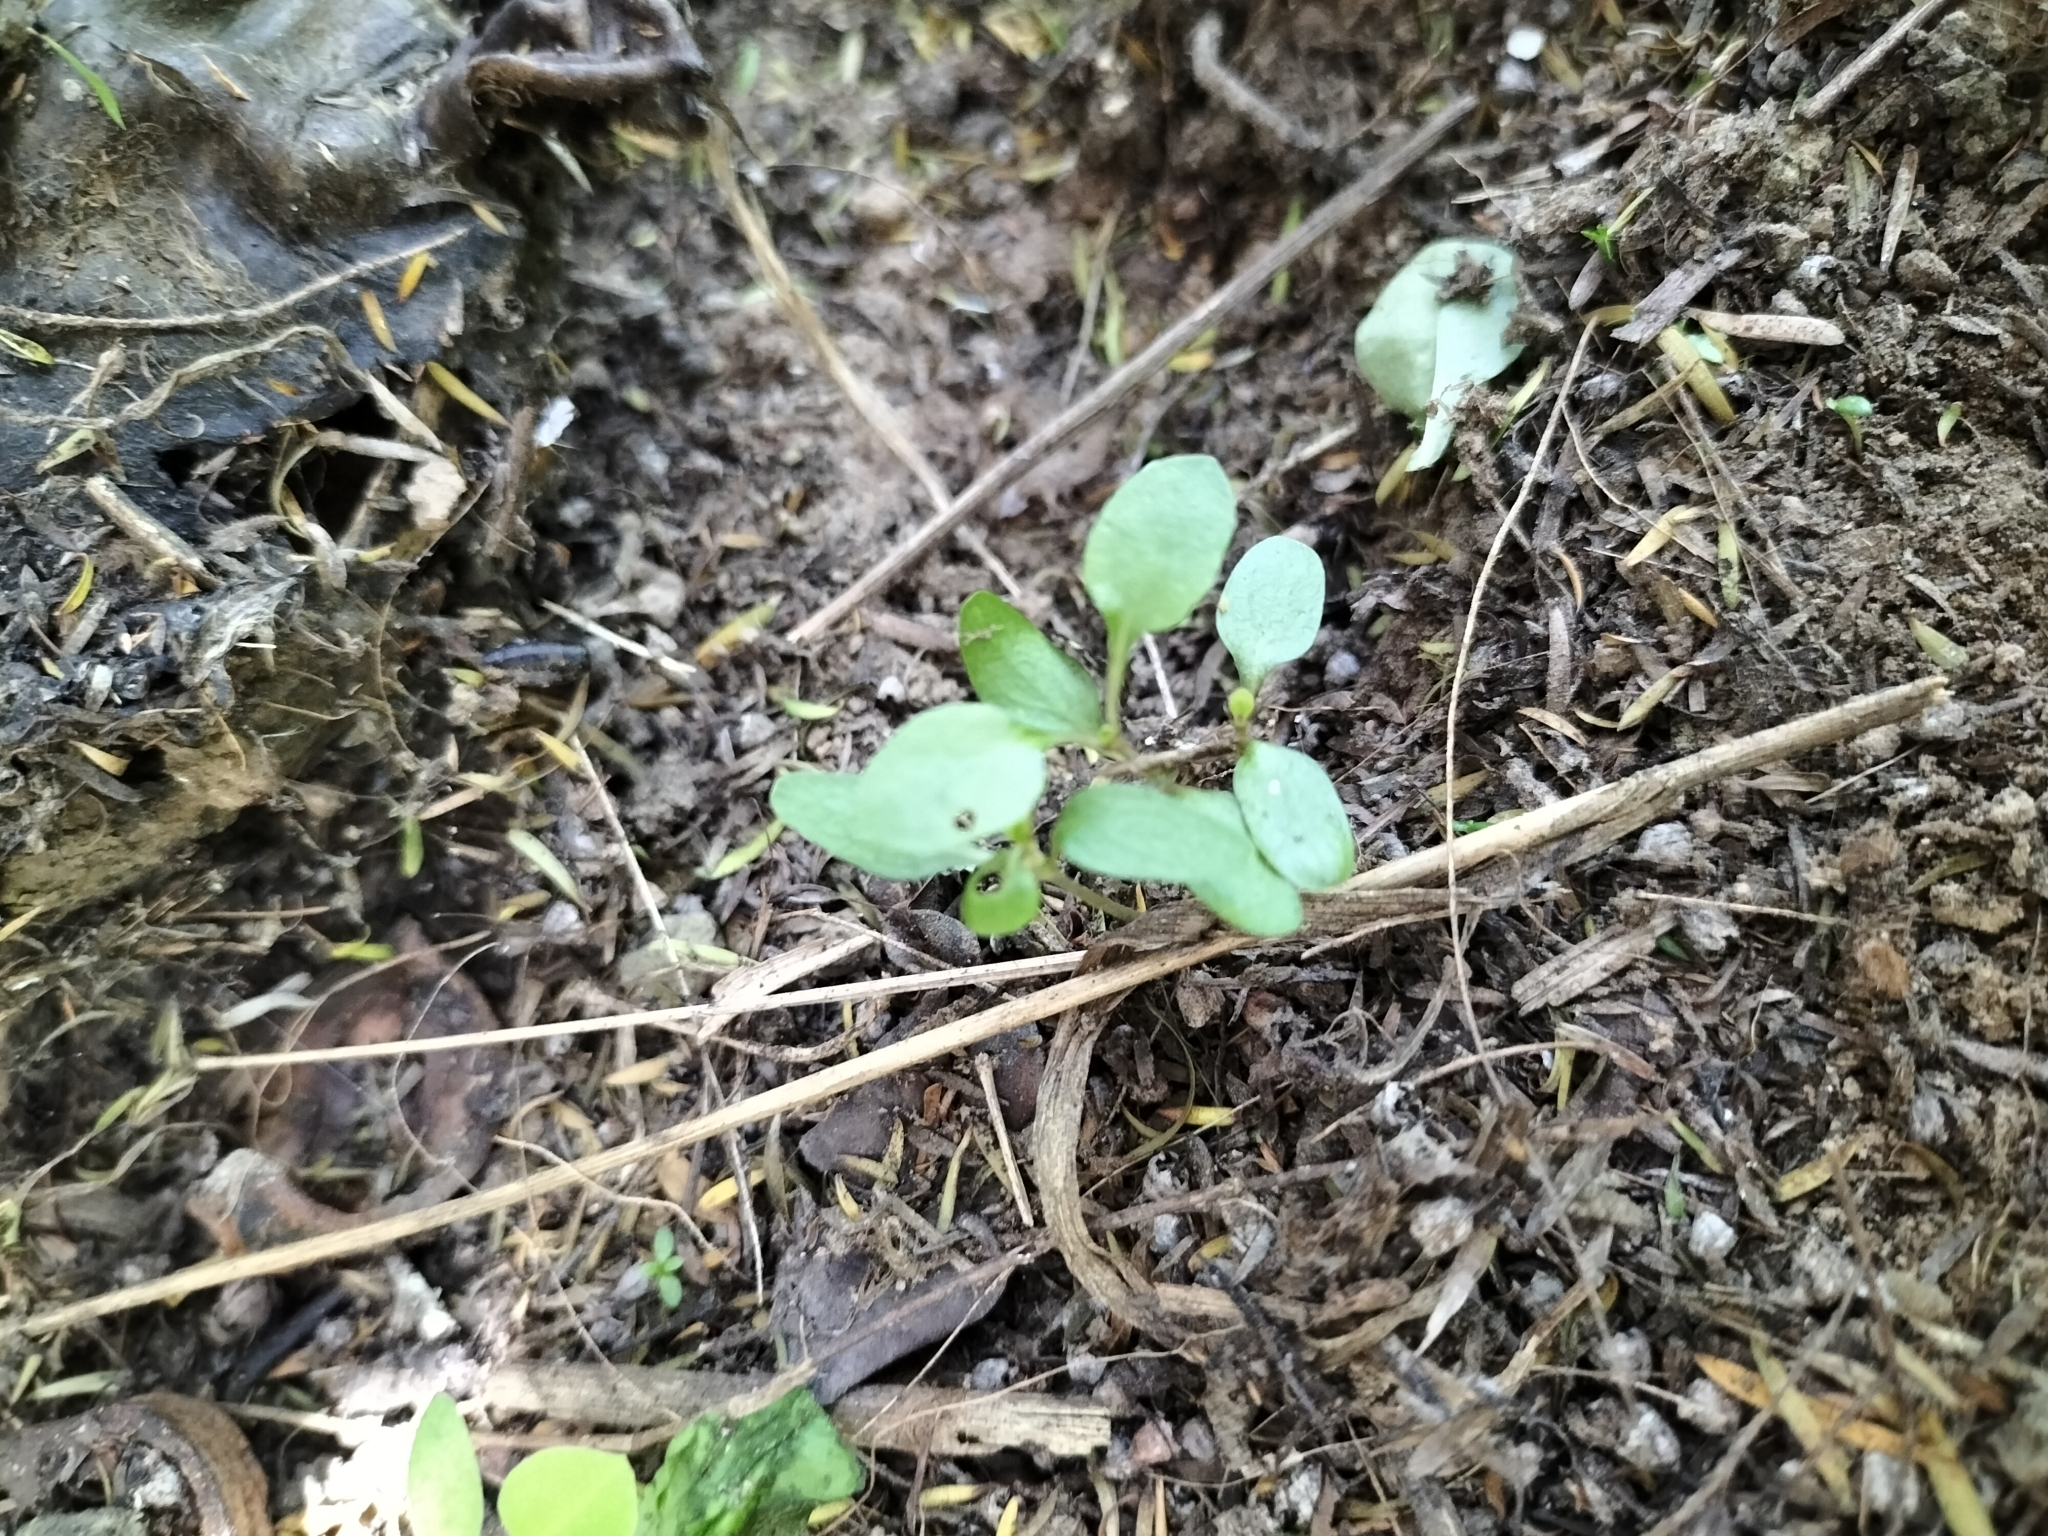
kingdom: Plantae
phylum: Tracheophyta
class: Magnoliopsida
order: Gentianales
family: Rubiaceae
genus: Coprosma
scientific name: Coprosma propinqua
